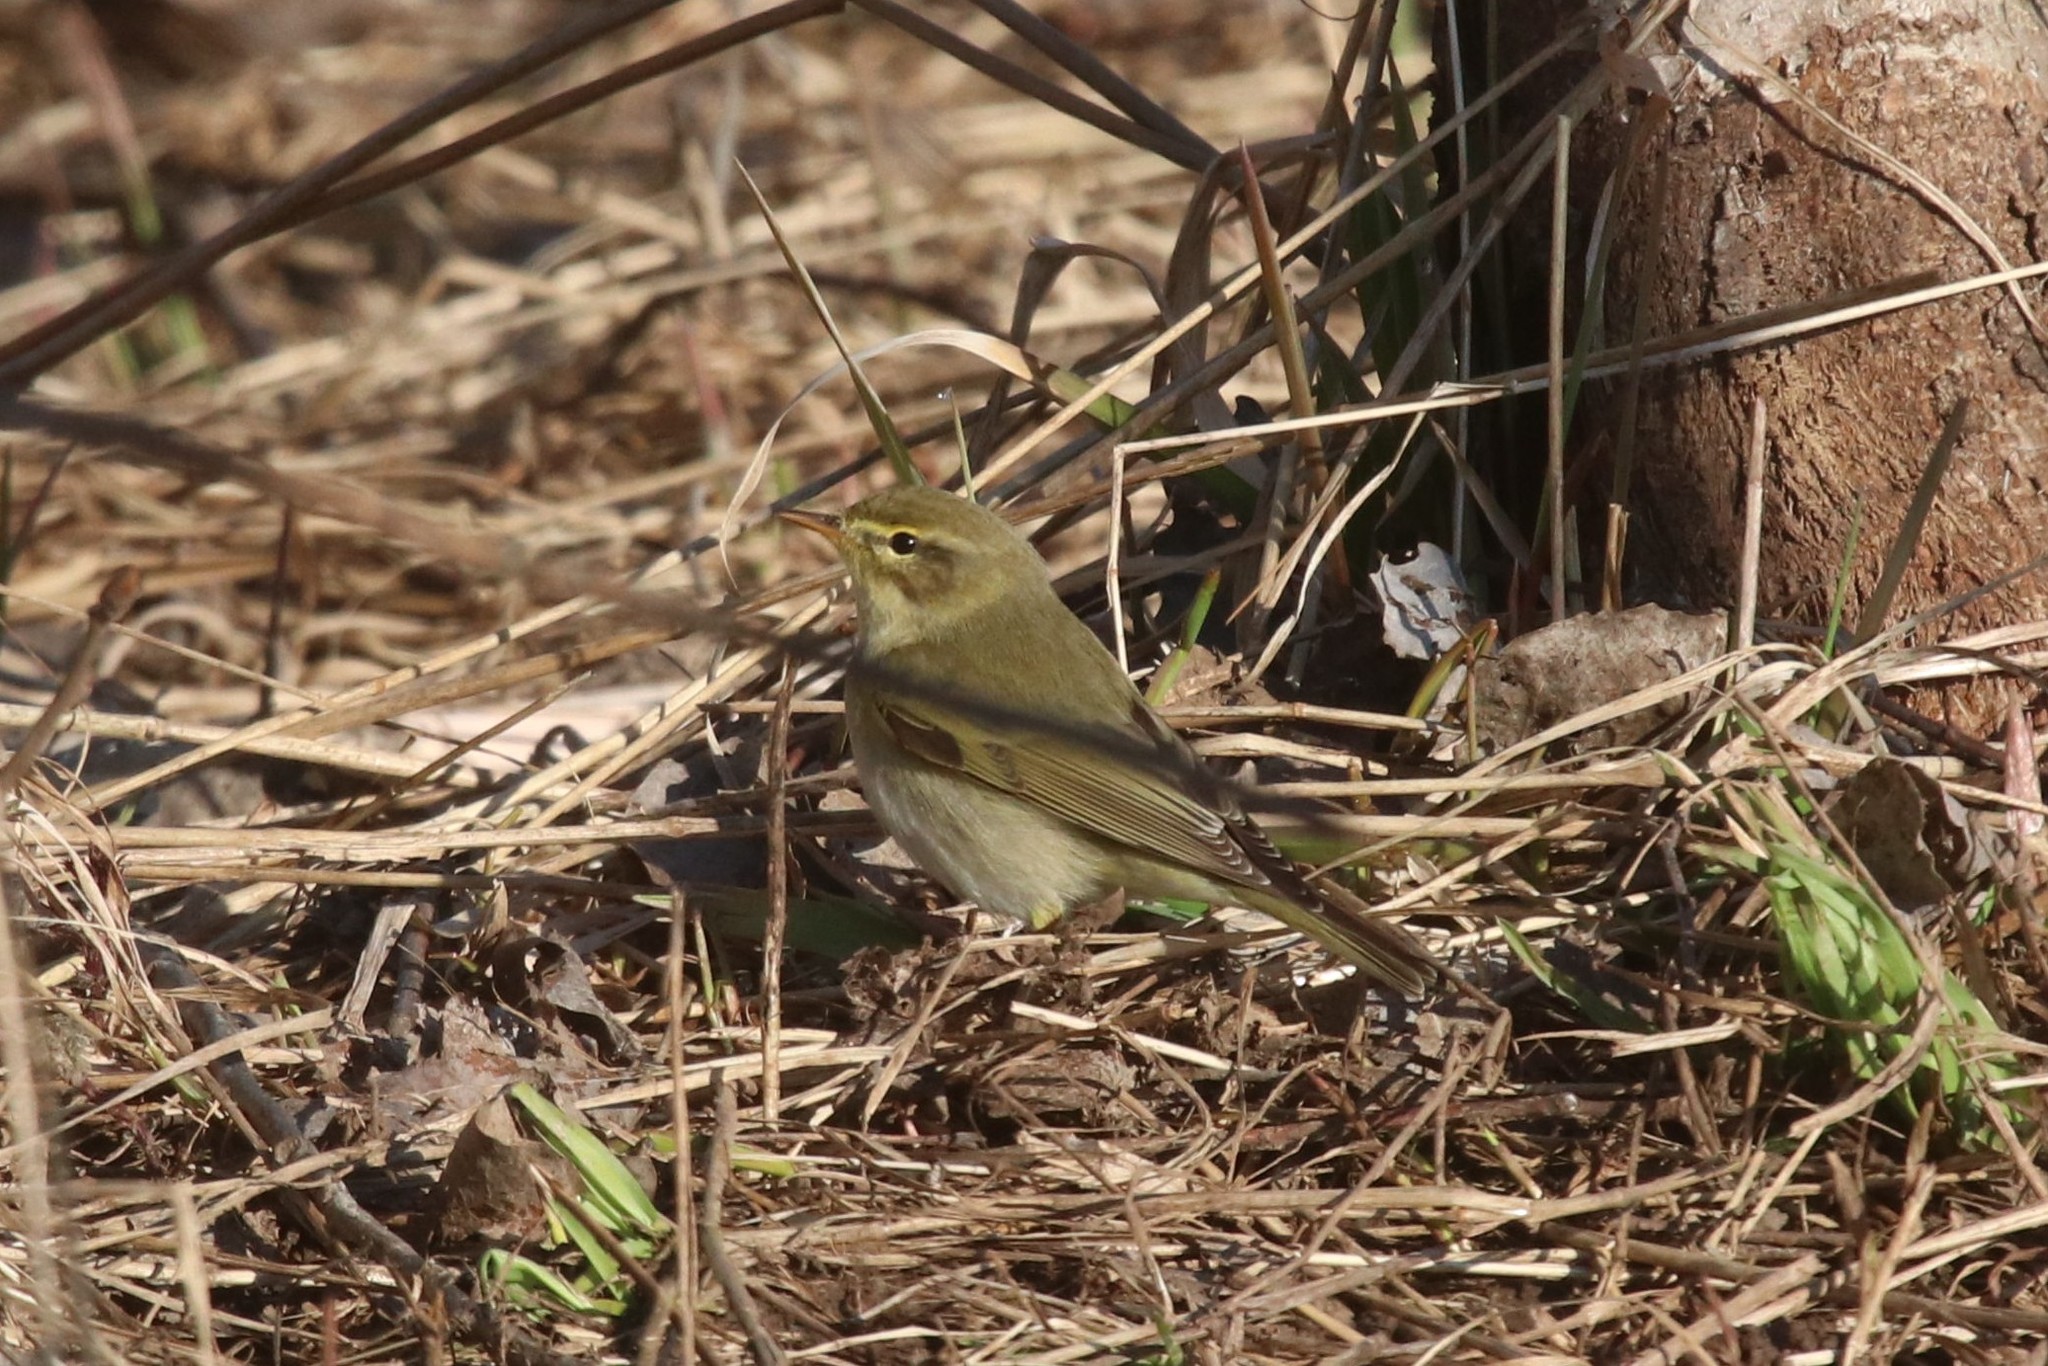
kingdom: Animalia
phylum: Chordata
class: Aves
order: Passeriformes
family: Phylloscopidae
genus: Phylloscopus
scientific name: Phylloscopus trochilus
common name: Willow warbler
